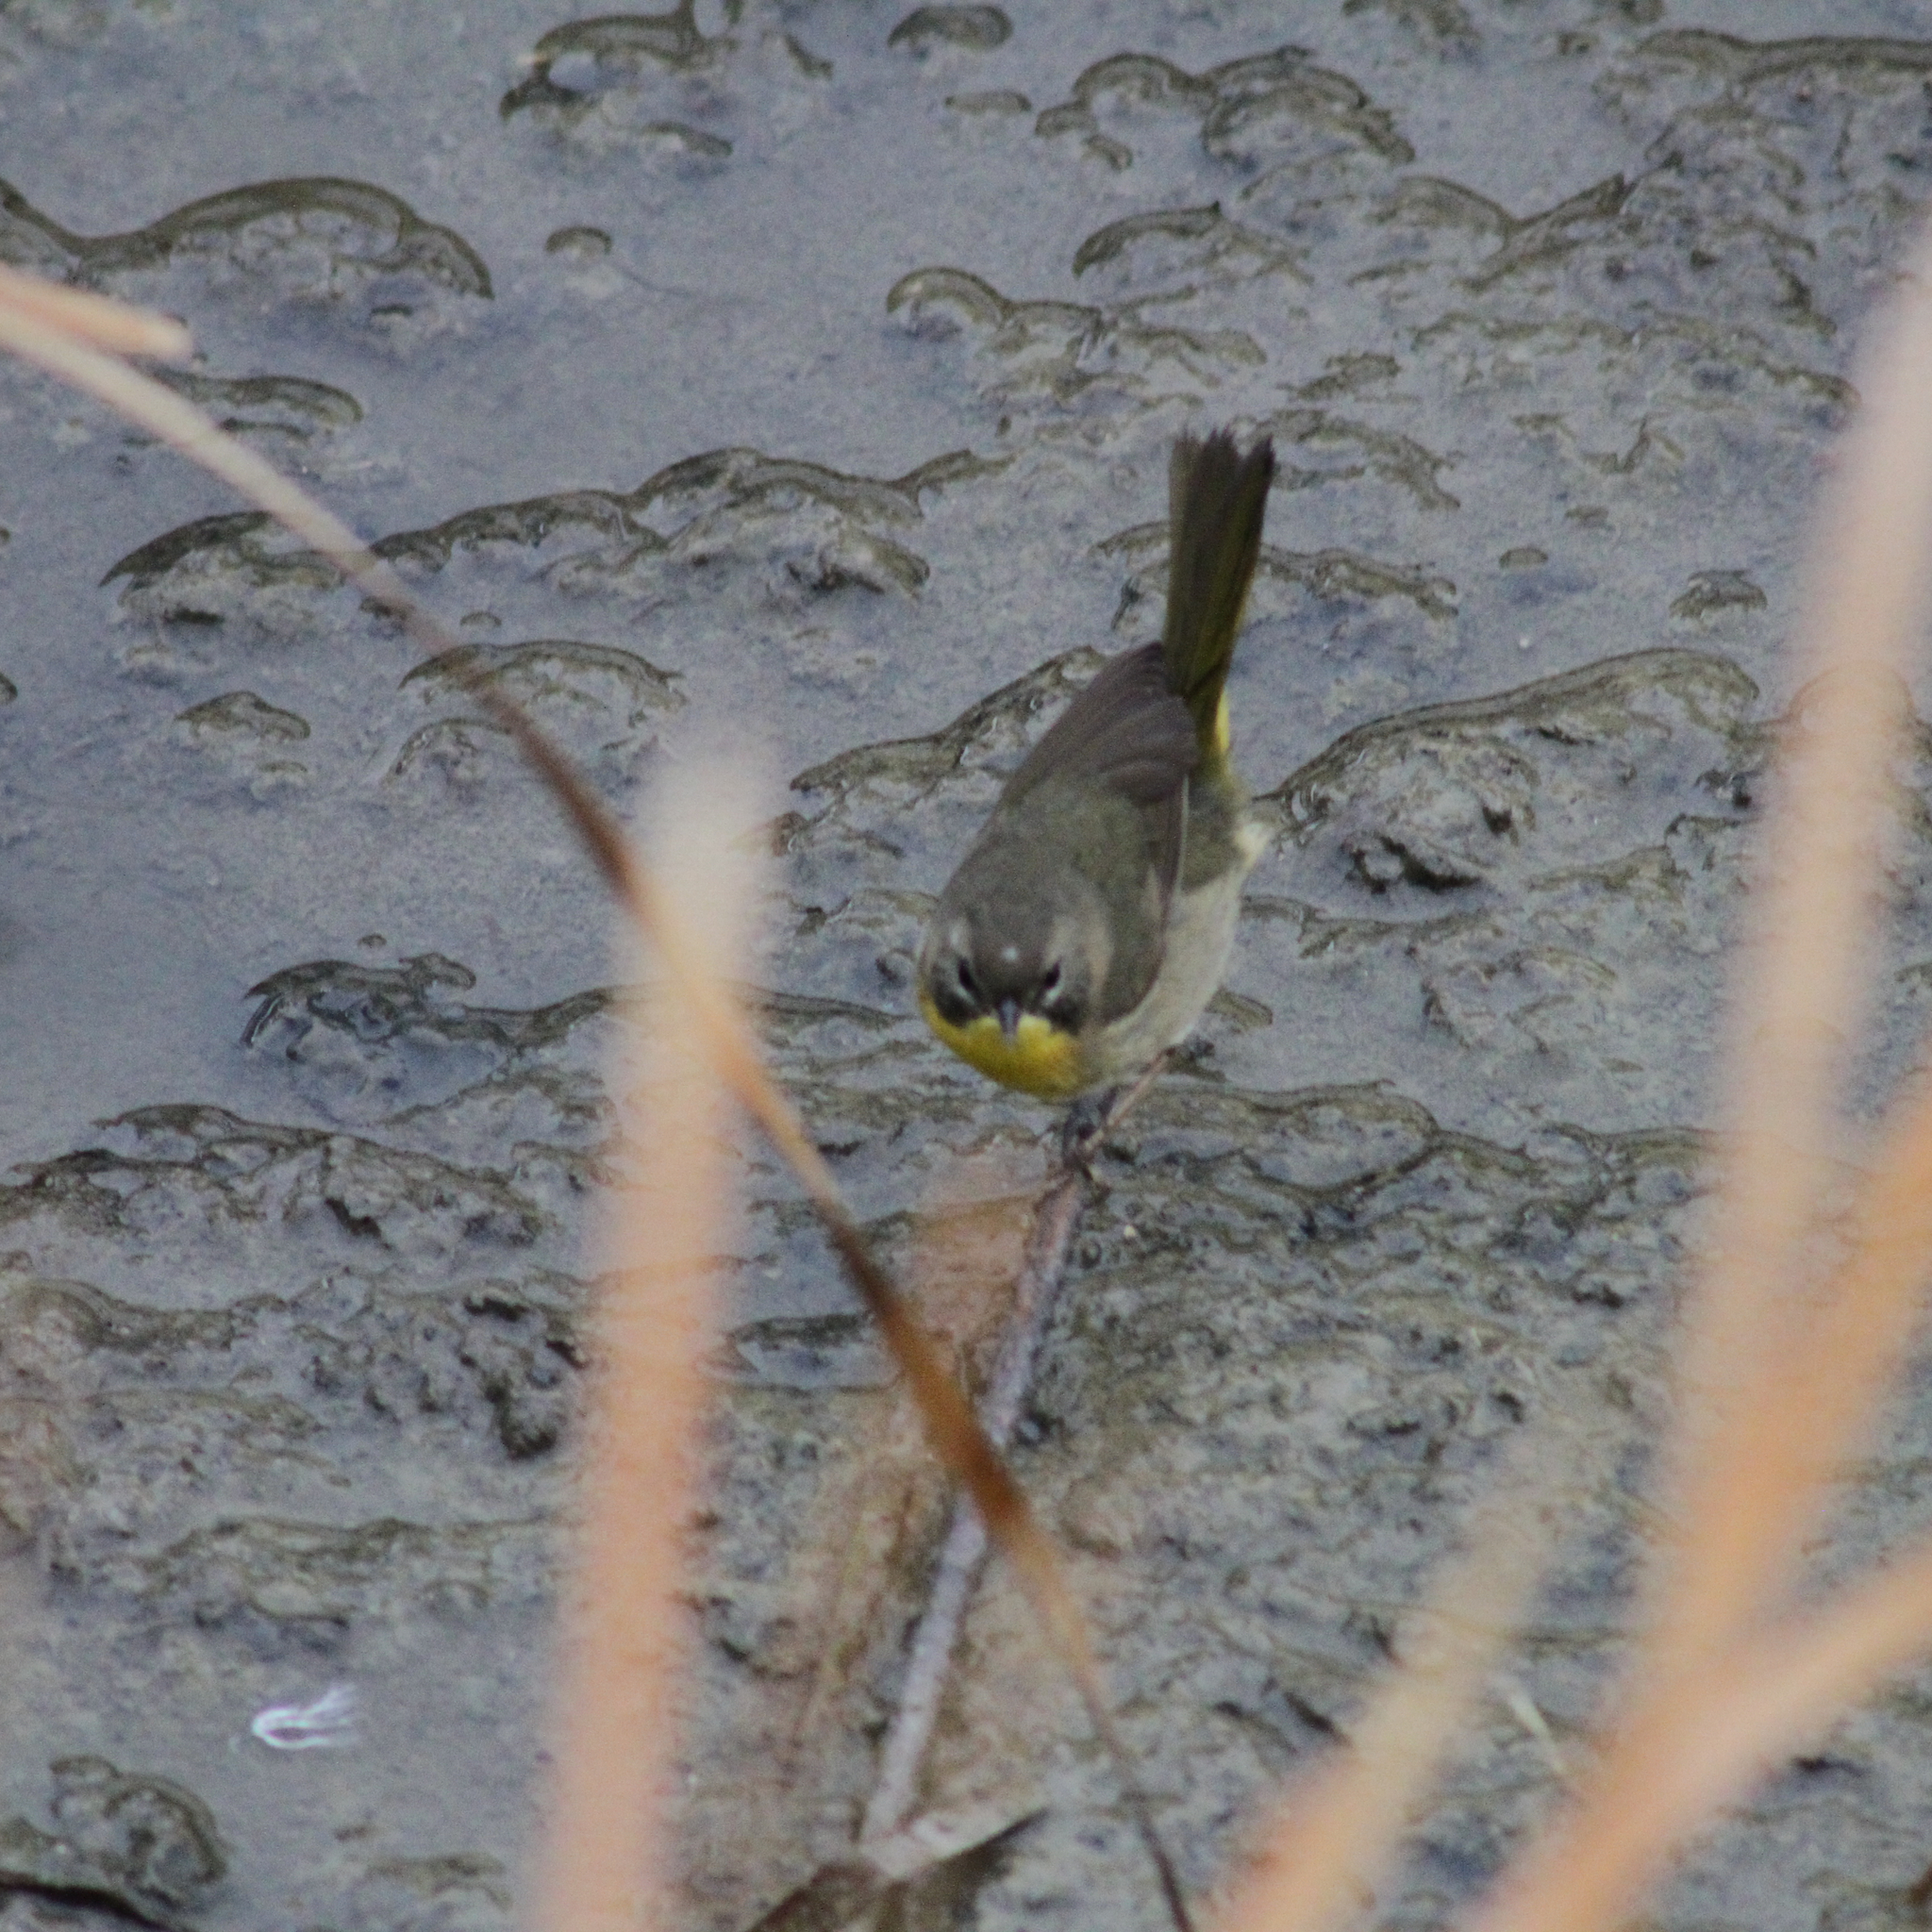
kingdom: Animalia
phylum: Chordata
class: Aves
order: Passeriformes
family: Parulidae
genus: Geothlypis
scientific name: Geothlypis trichas
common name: Common yellowthroat
